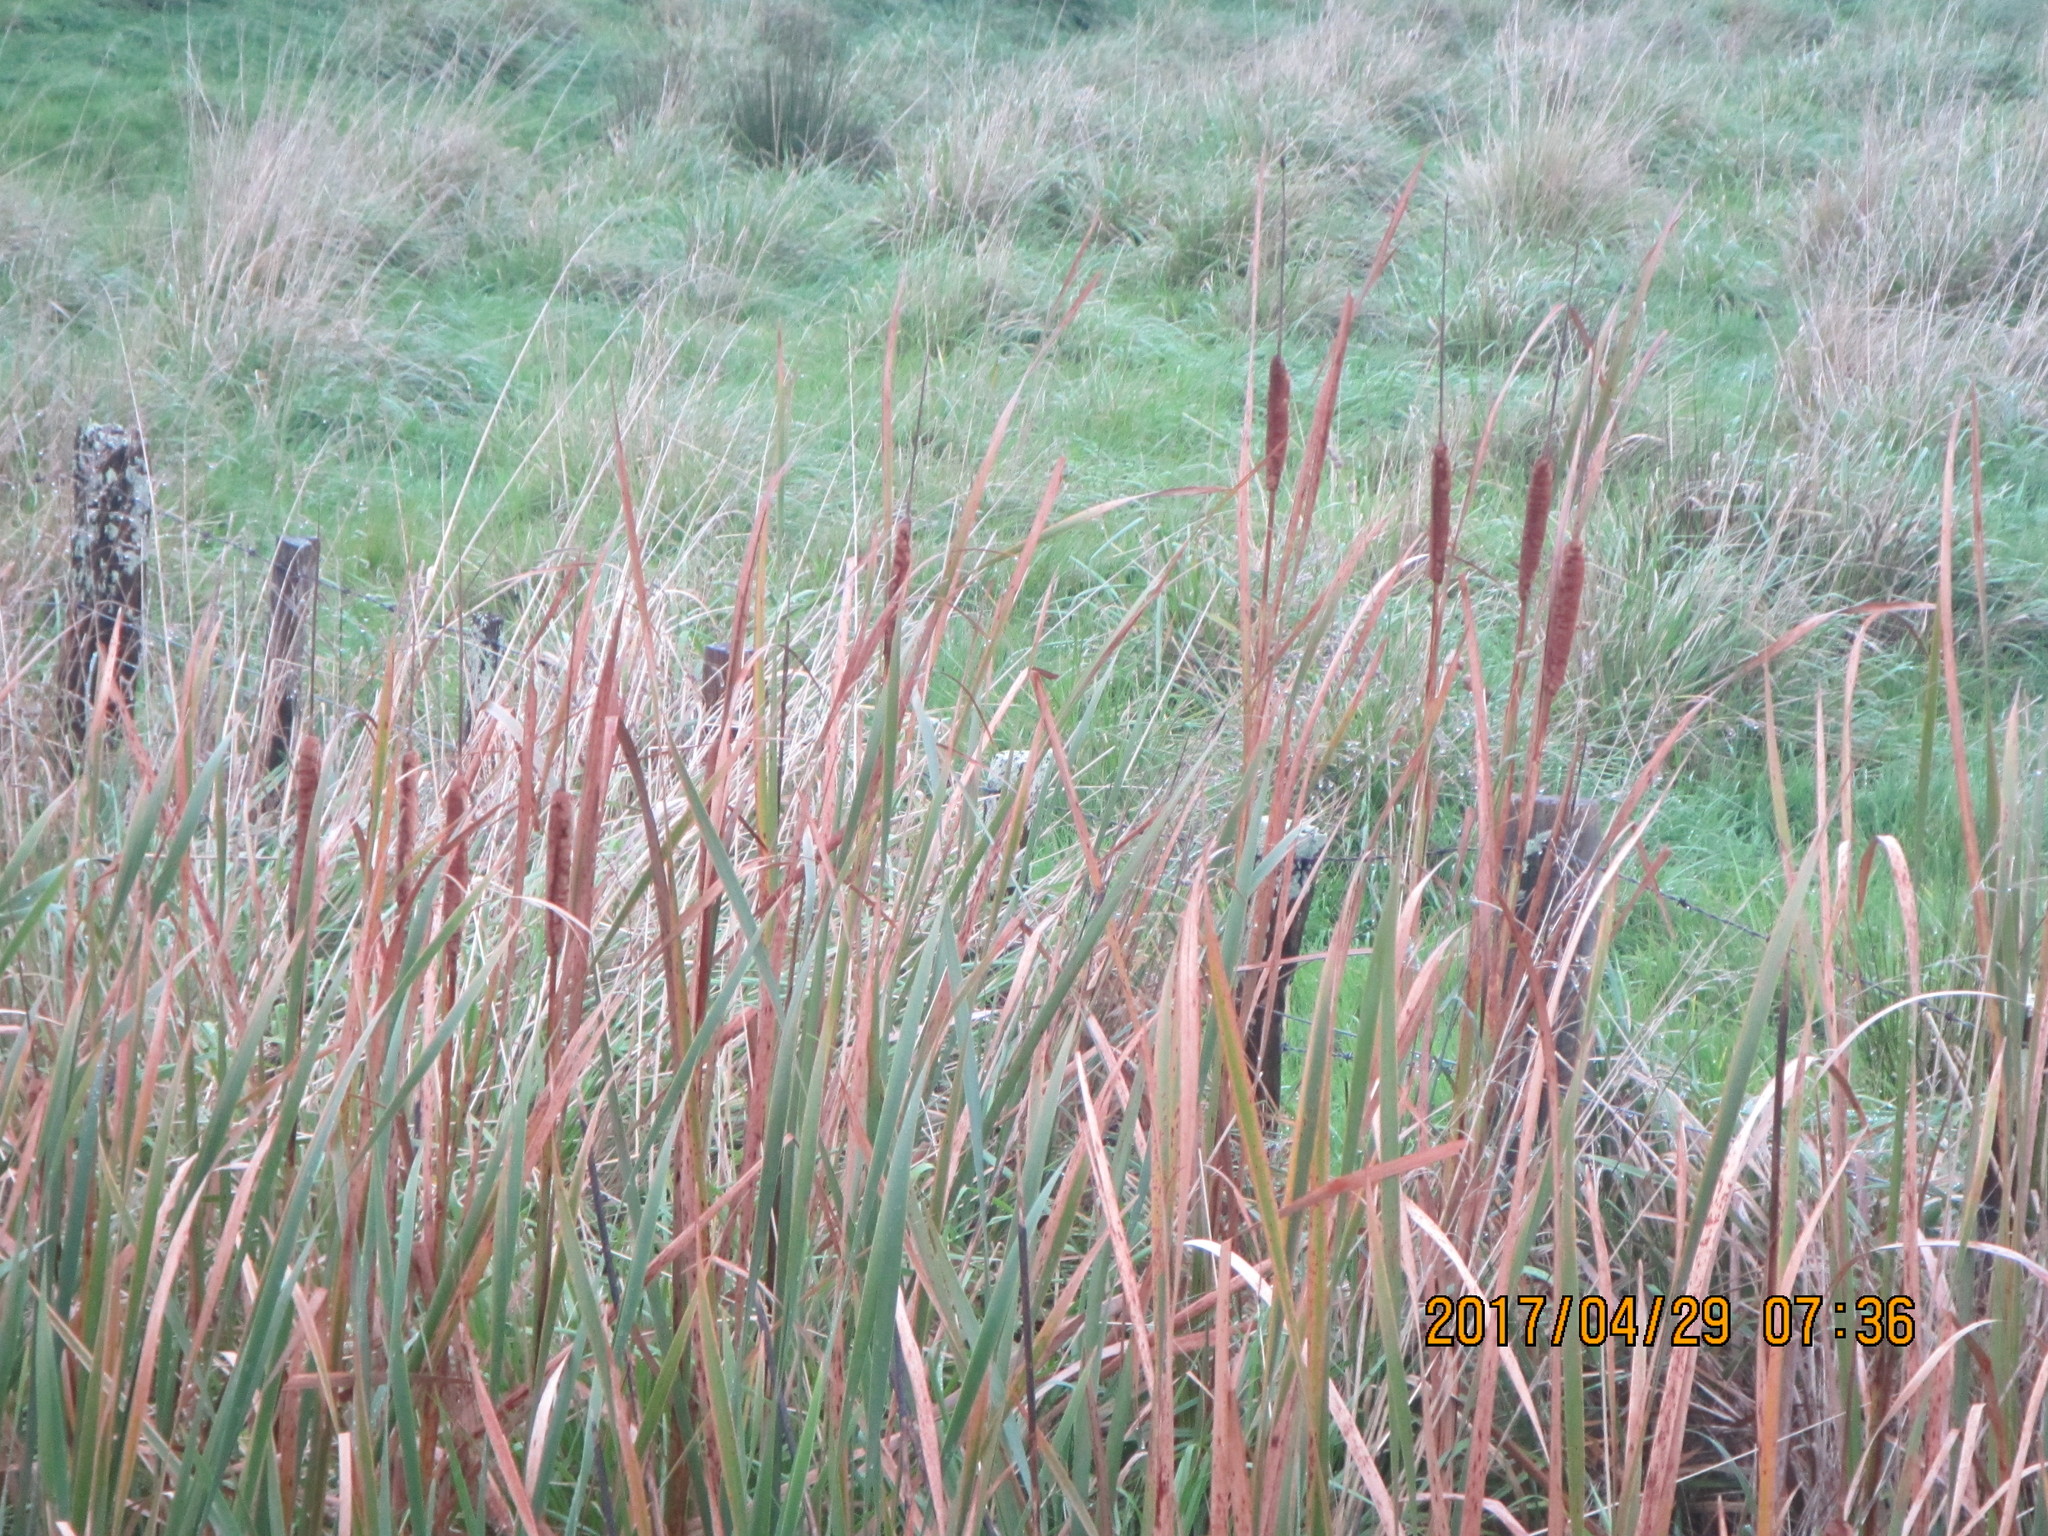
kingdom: Plantae
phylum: Tracheophyta
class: Liliopsida
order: Poales
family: Typhaceae
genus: Typha
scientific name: Typha orientalis
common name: Bullrush
